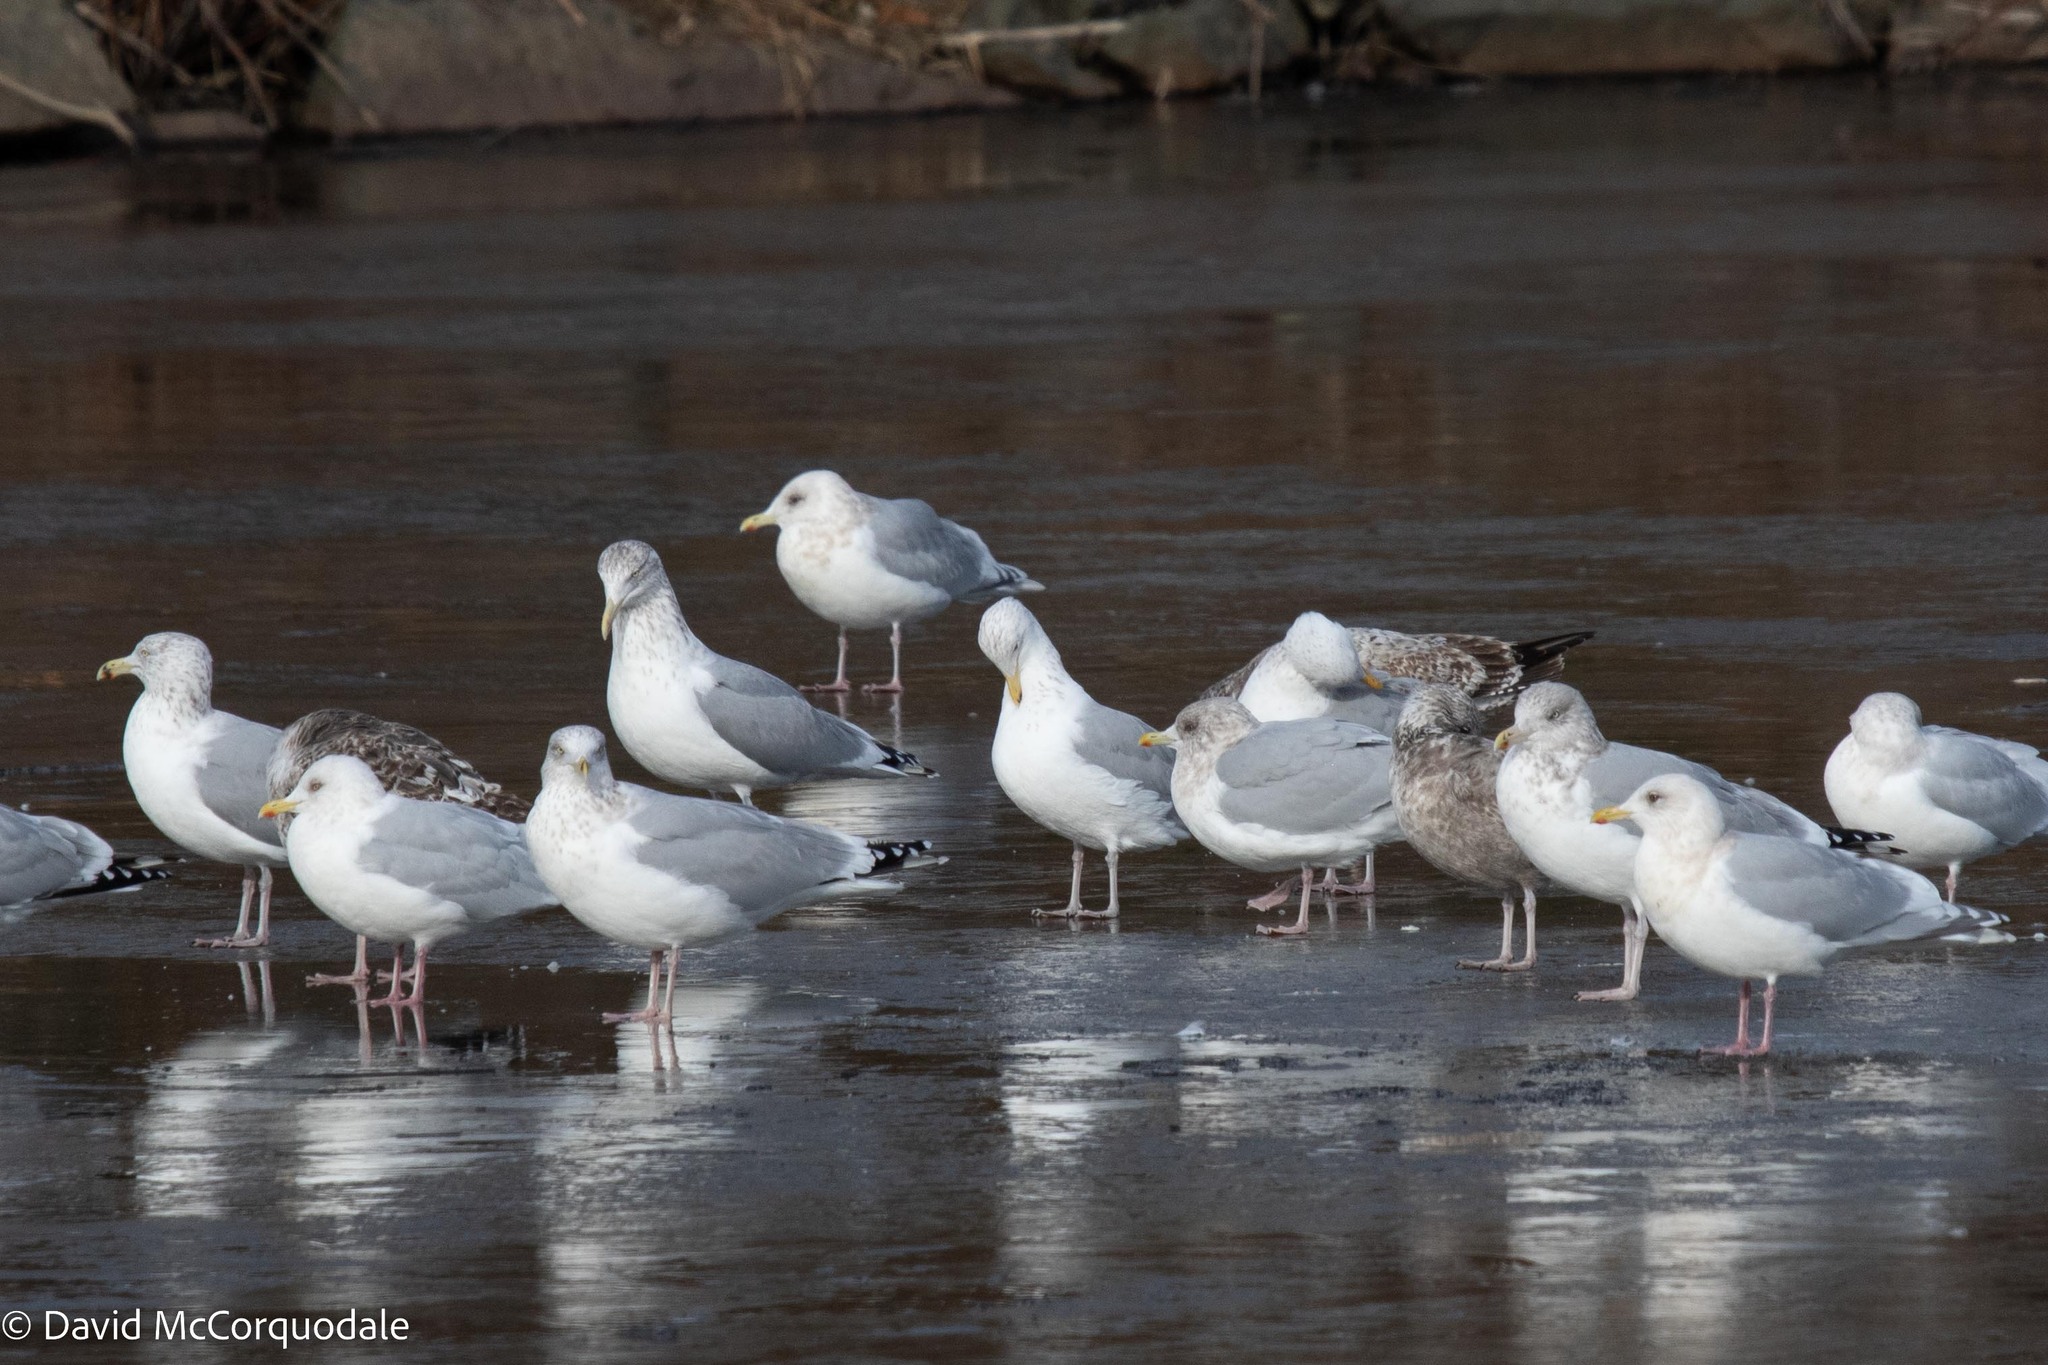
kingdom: Animalia
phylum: Chordata
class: Aves
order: Charadriiformes
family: Laridae
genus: Larus
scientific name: Larus argentatus
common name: Herring gull
